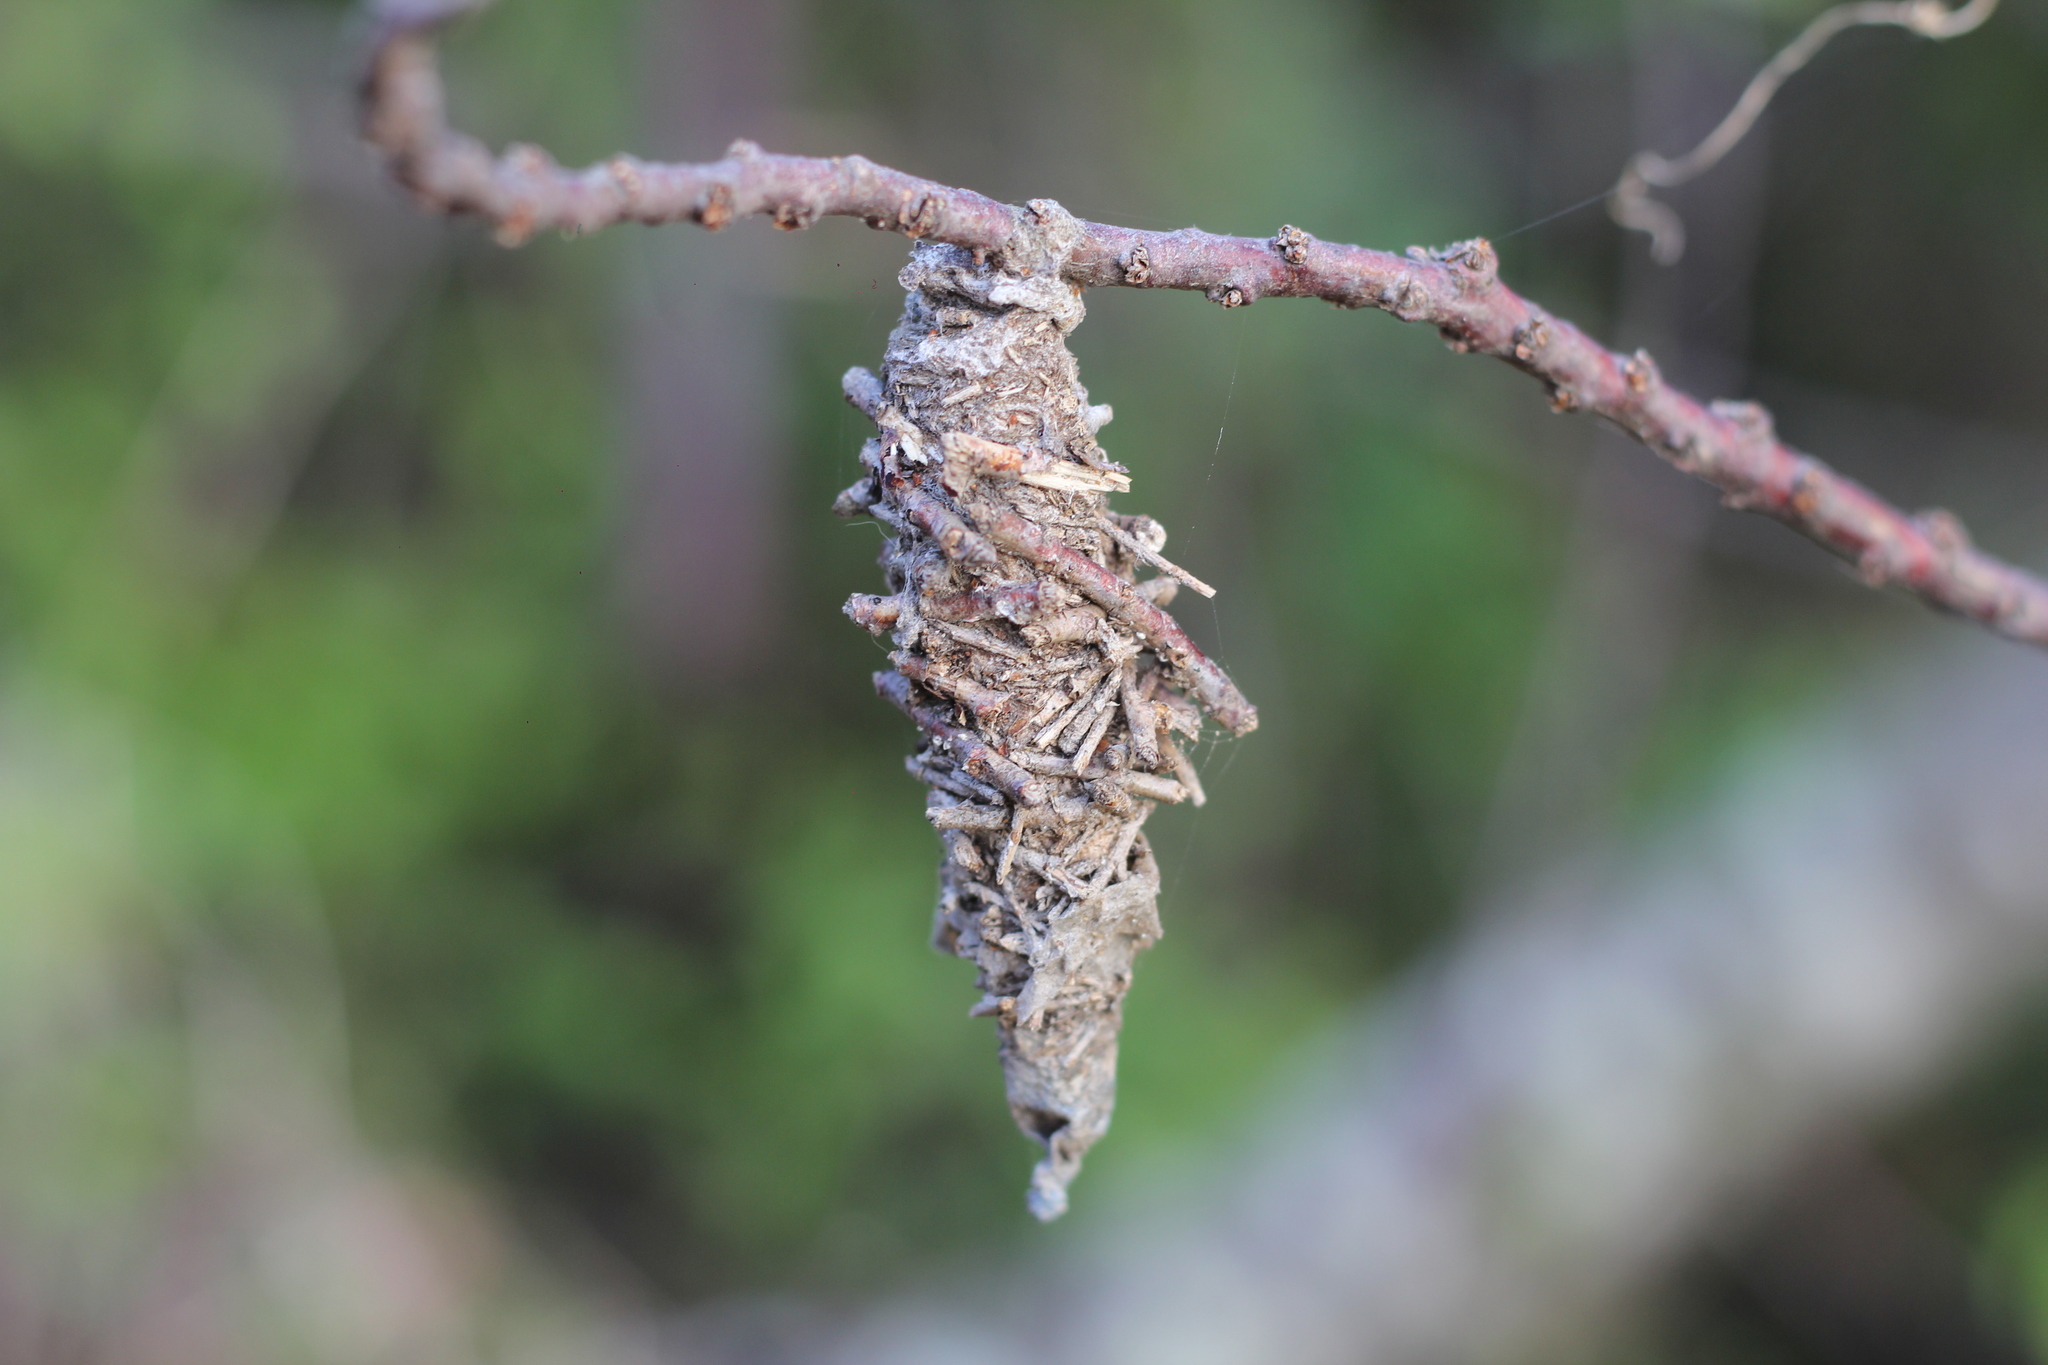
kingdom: Animalia
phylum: Arthropoda
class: Insecta
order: Lepidoptera
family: Psychidae
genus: Oiketicus
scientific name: Oiketicus
